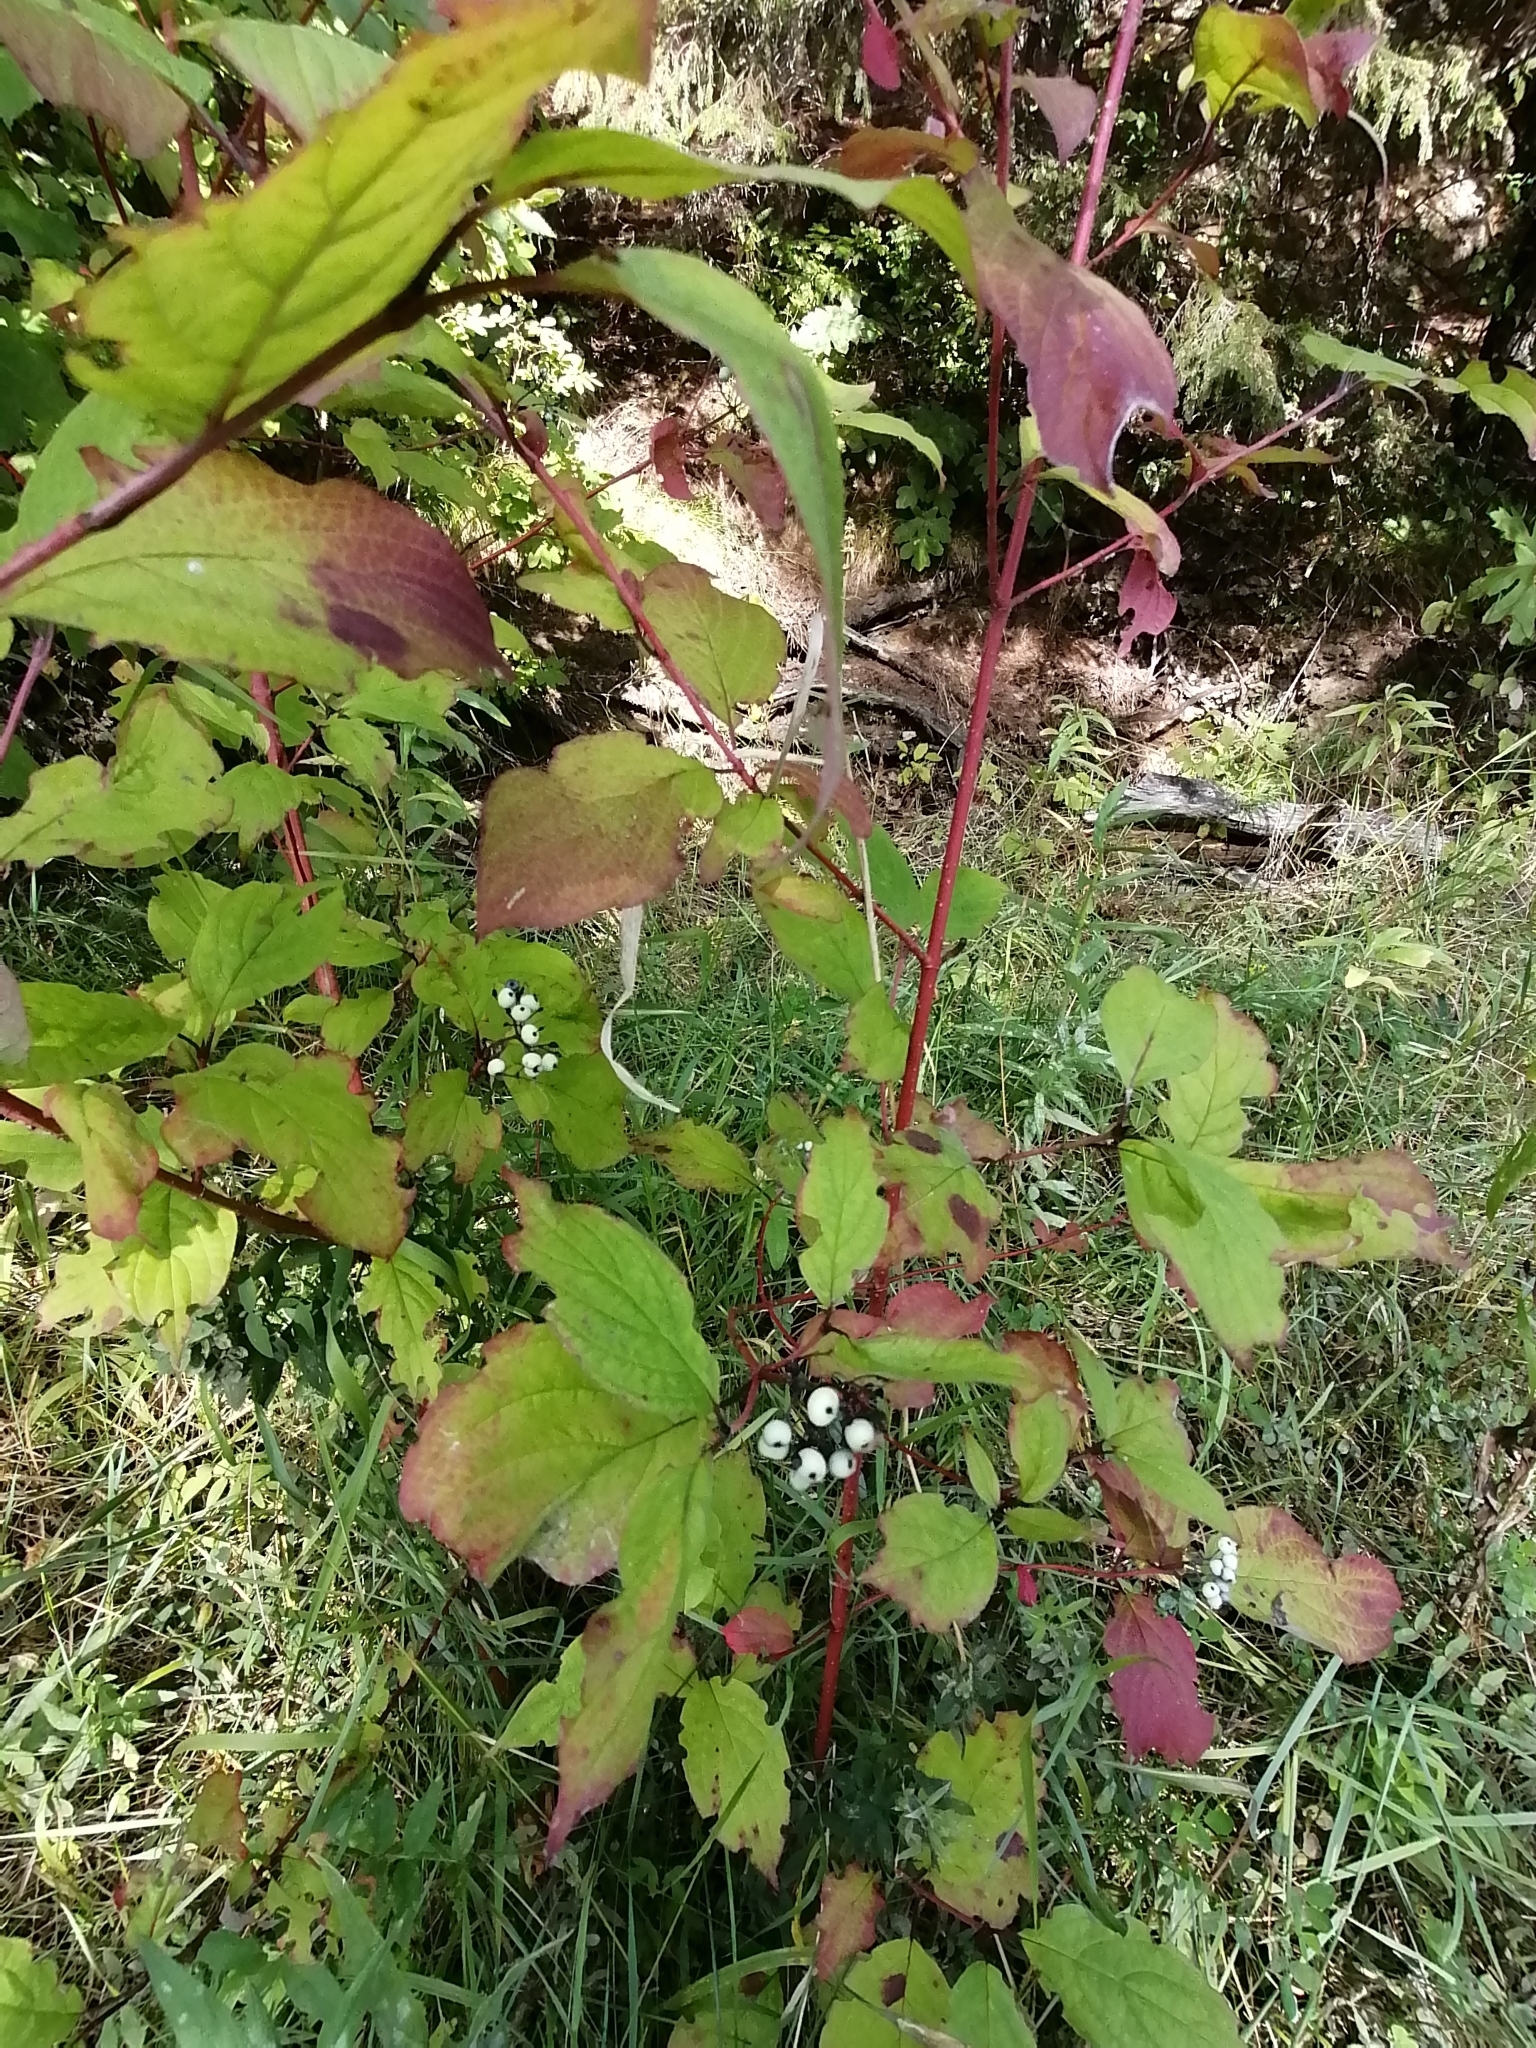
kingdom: Plantae
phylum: Tracheophyta
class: Magnoliopsida
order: Cornales
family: Cornaceae
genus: Cornus
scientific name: Cornus alba
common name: White dogwood
